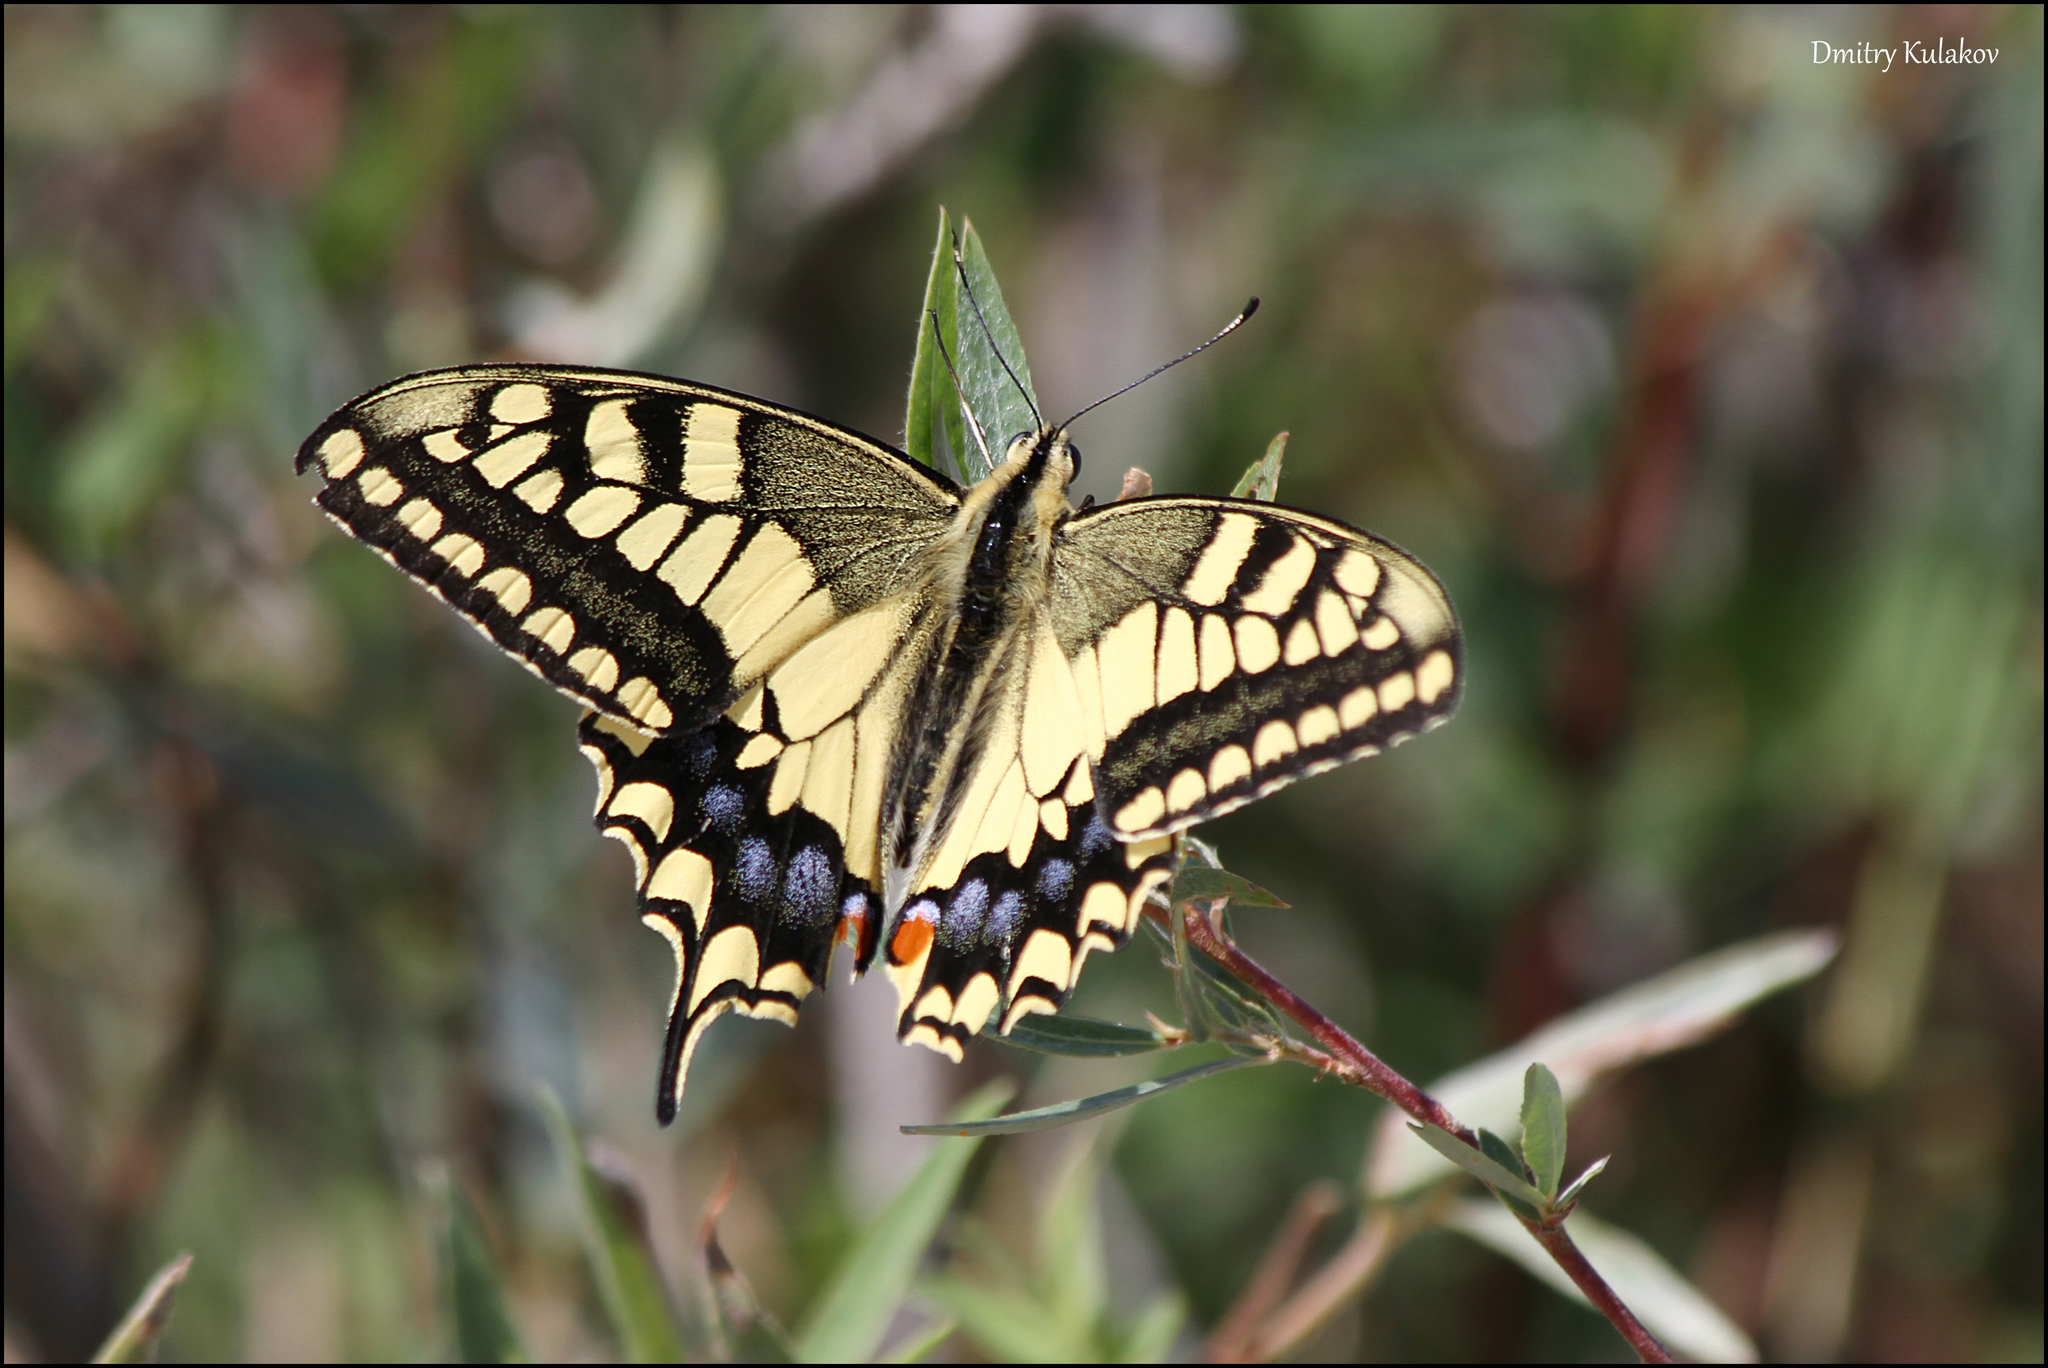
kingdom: Animalia
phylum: Arthropoda
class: Insecta
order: Lepidoptera
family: Papilionidae
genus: Papilio
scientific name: Papilio machaon
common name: Swallowtail
